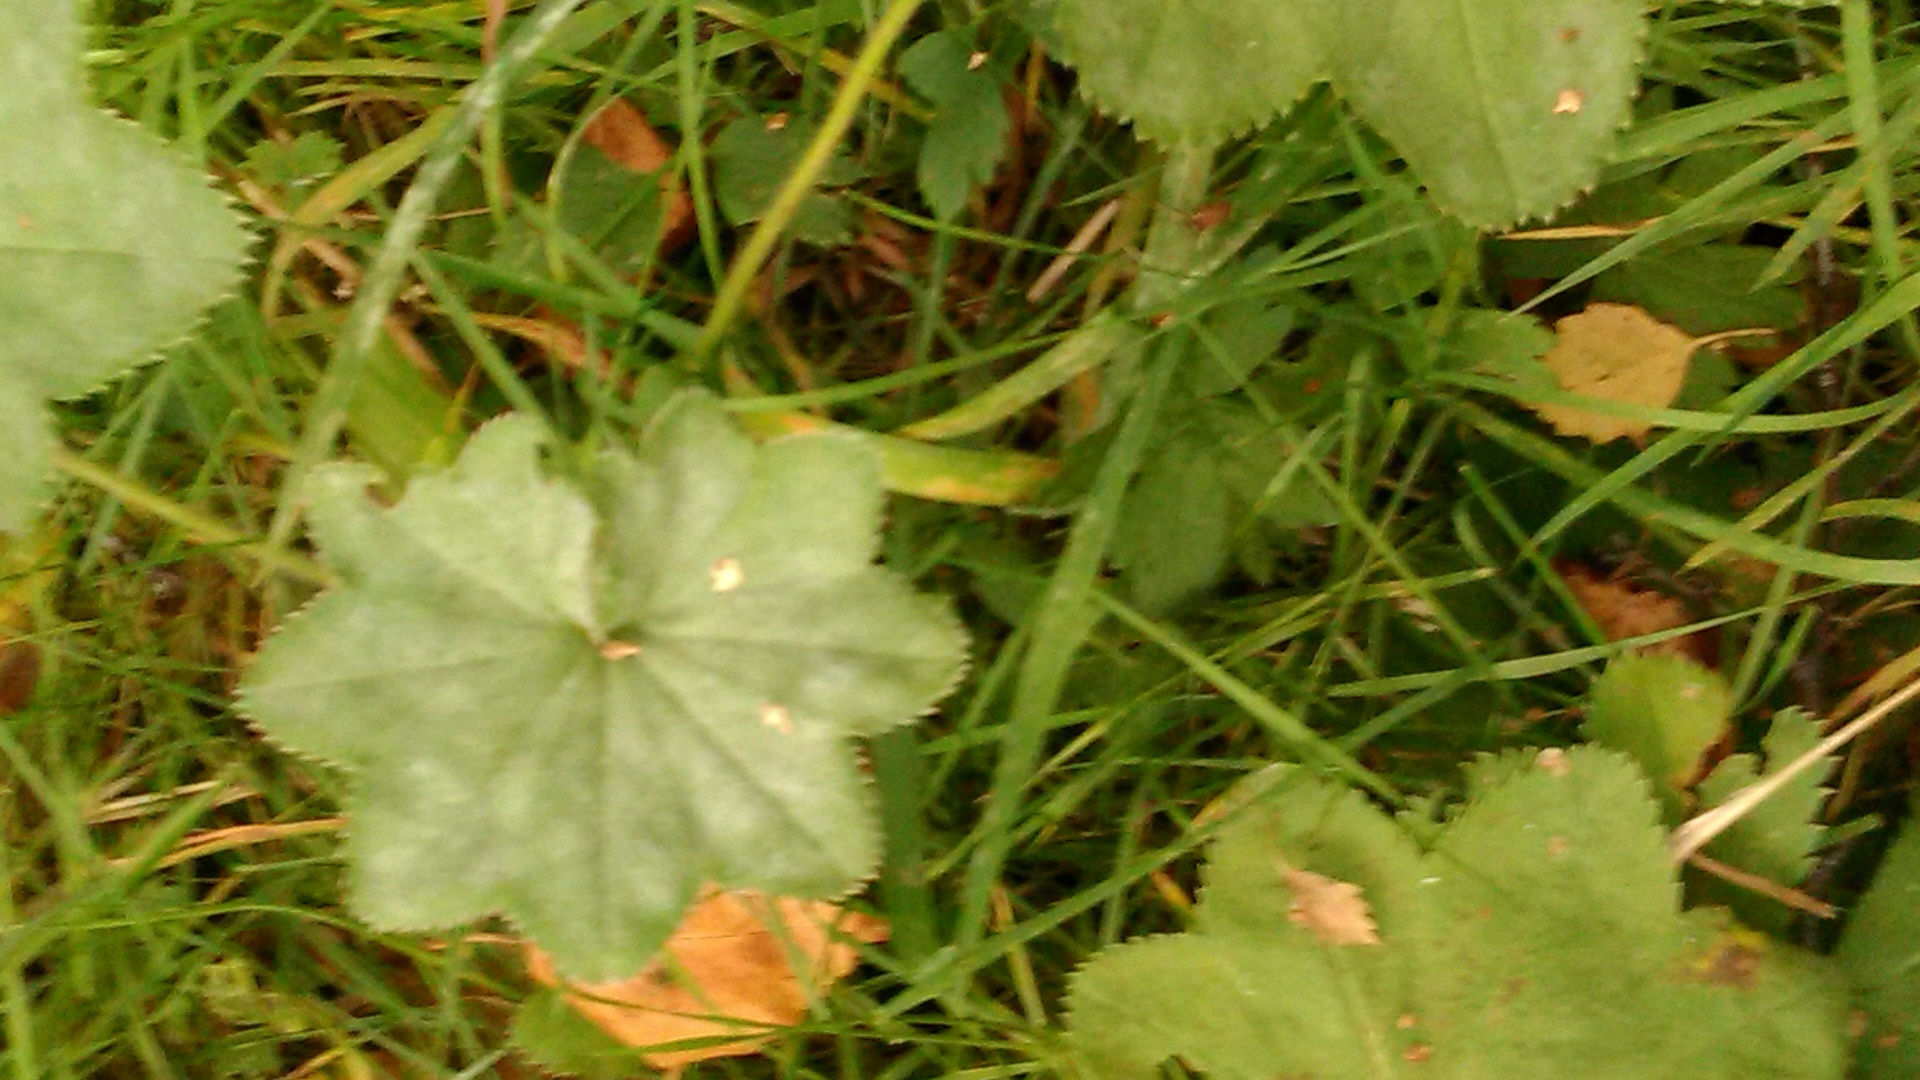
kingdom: Plantae
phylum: Tracheophyta
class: Magnoliopsida
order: Rosales
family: Rosaceae
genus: Alchemilla
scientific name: Alchemilla
